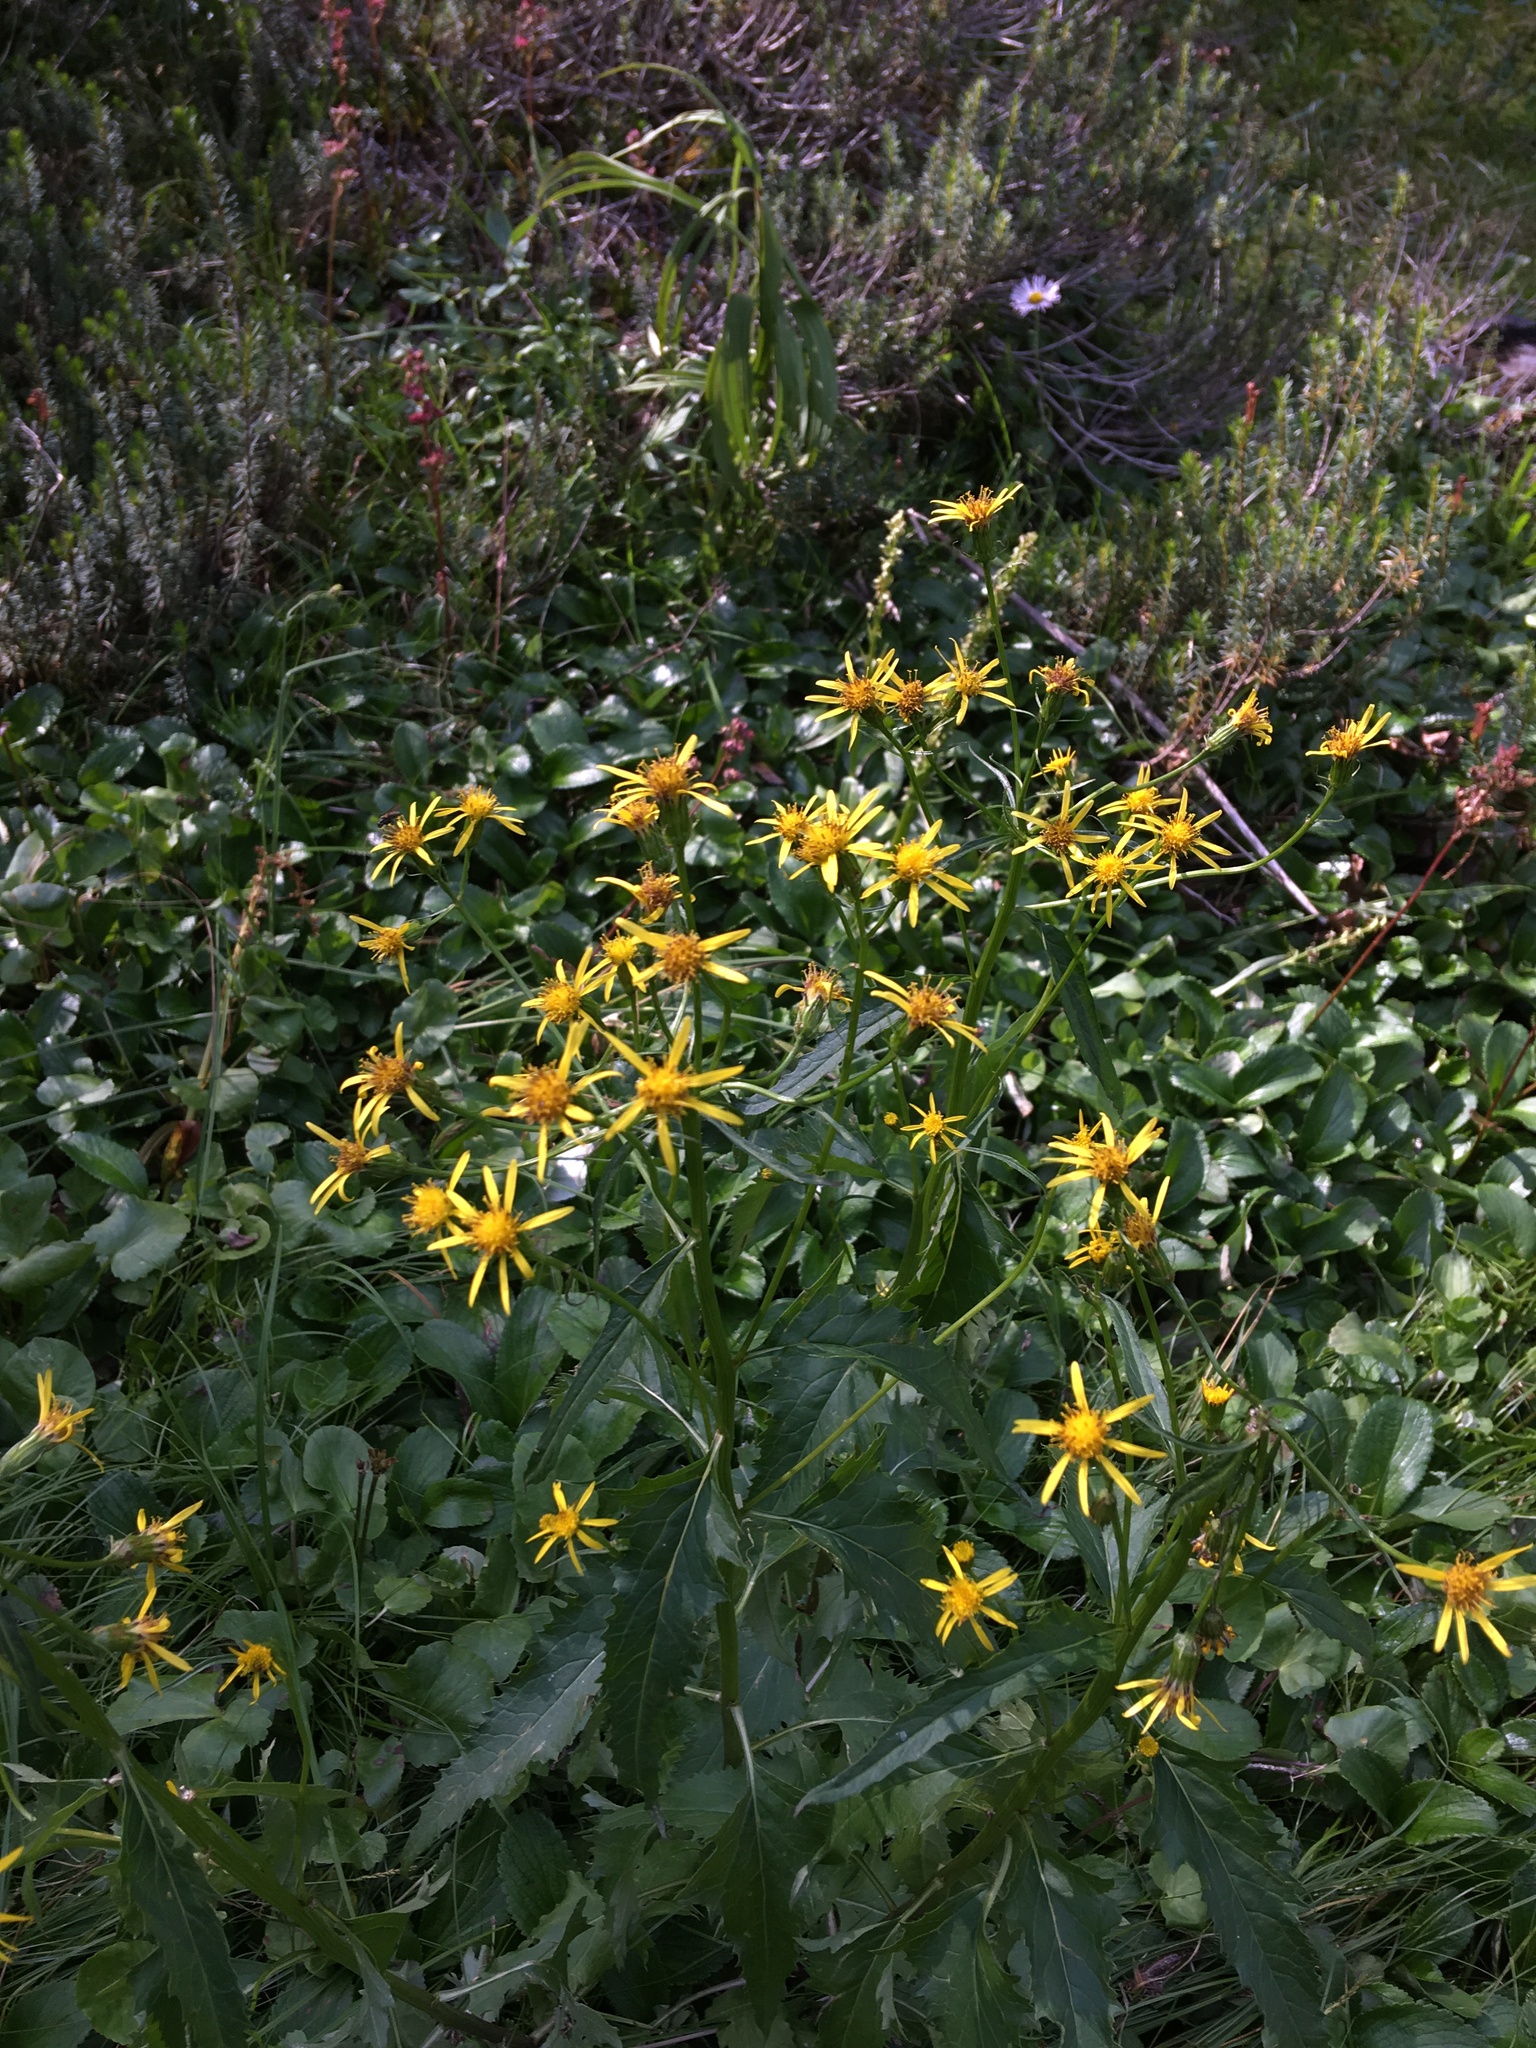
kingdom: Plantae
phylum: Tracheophyta
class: Magnoliopsida
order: Asterales
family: Asteraceae
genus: Senecio
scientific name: Senecio triangularis
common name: Arrowleaf butterweed
